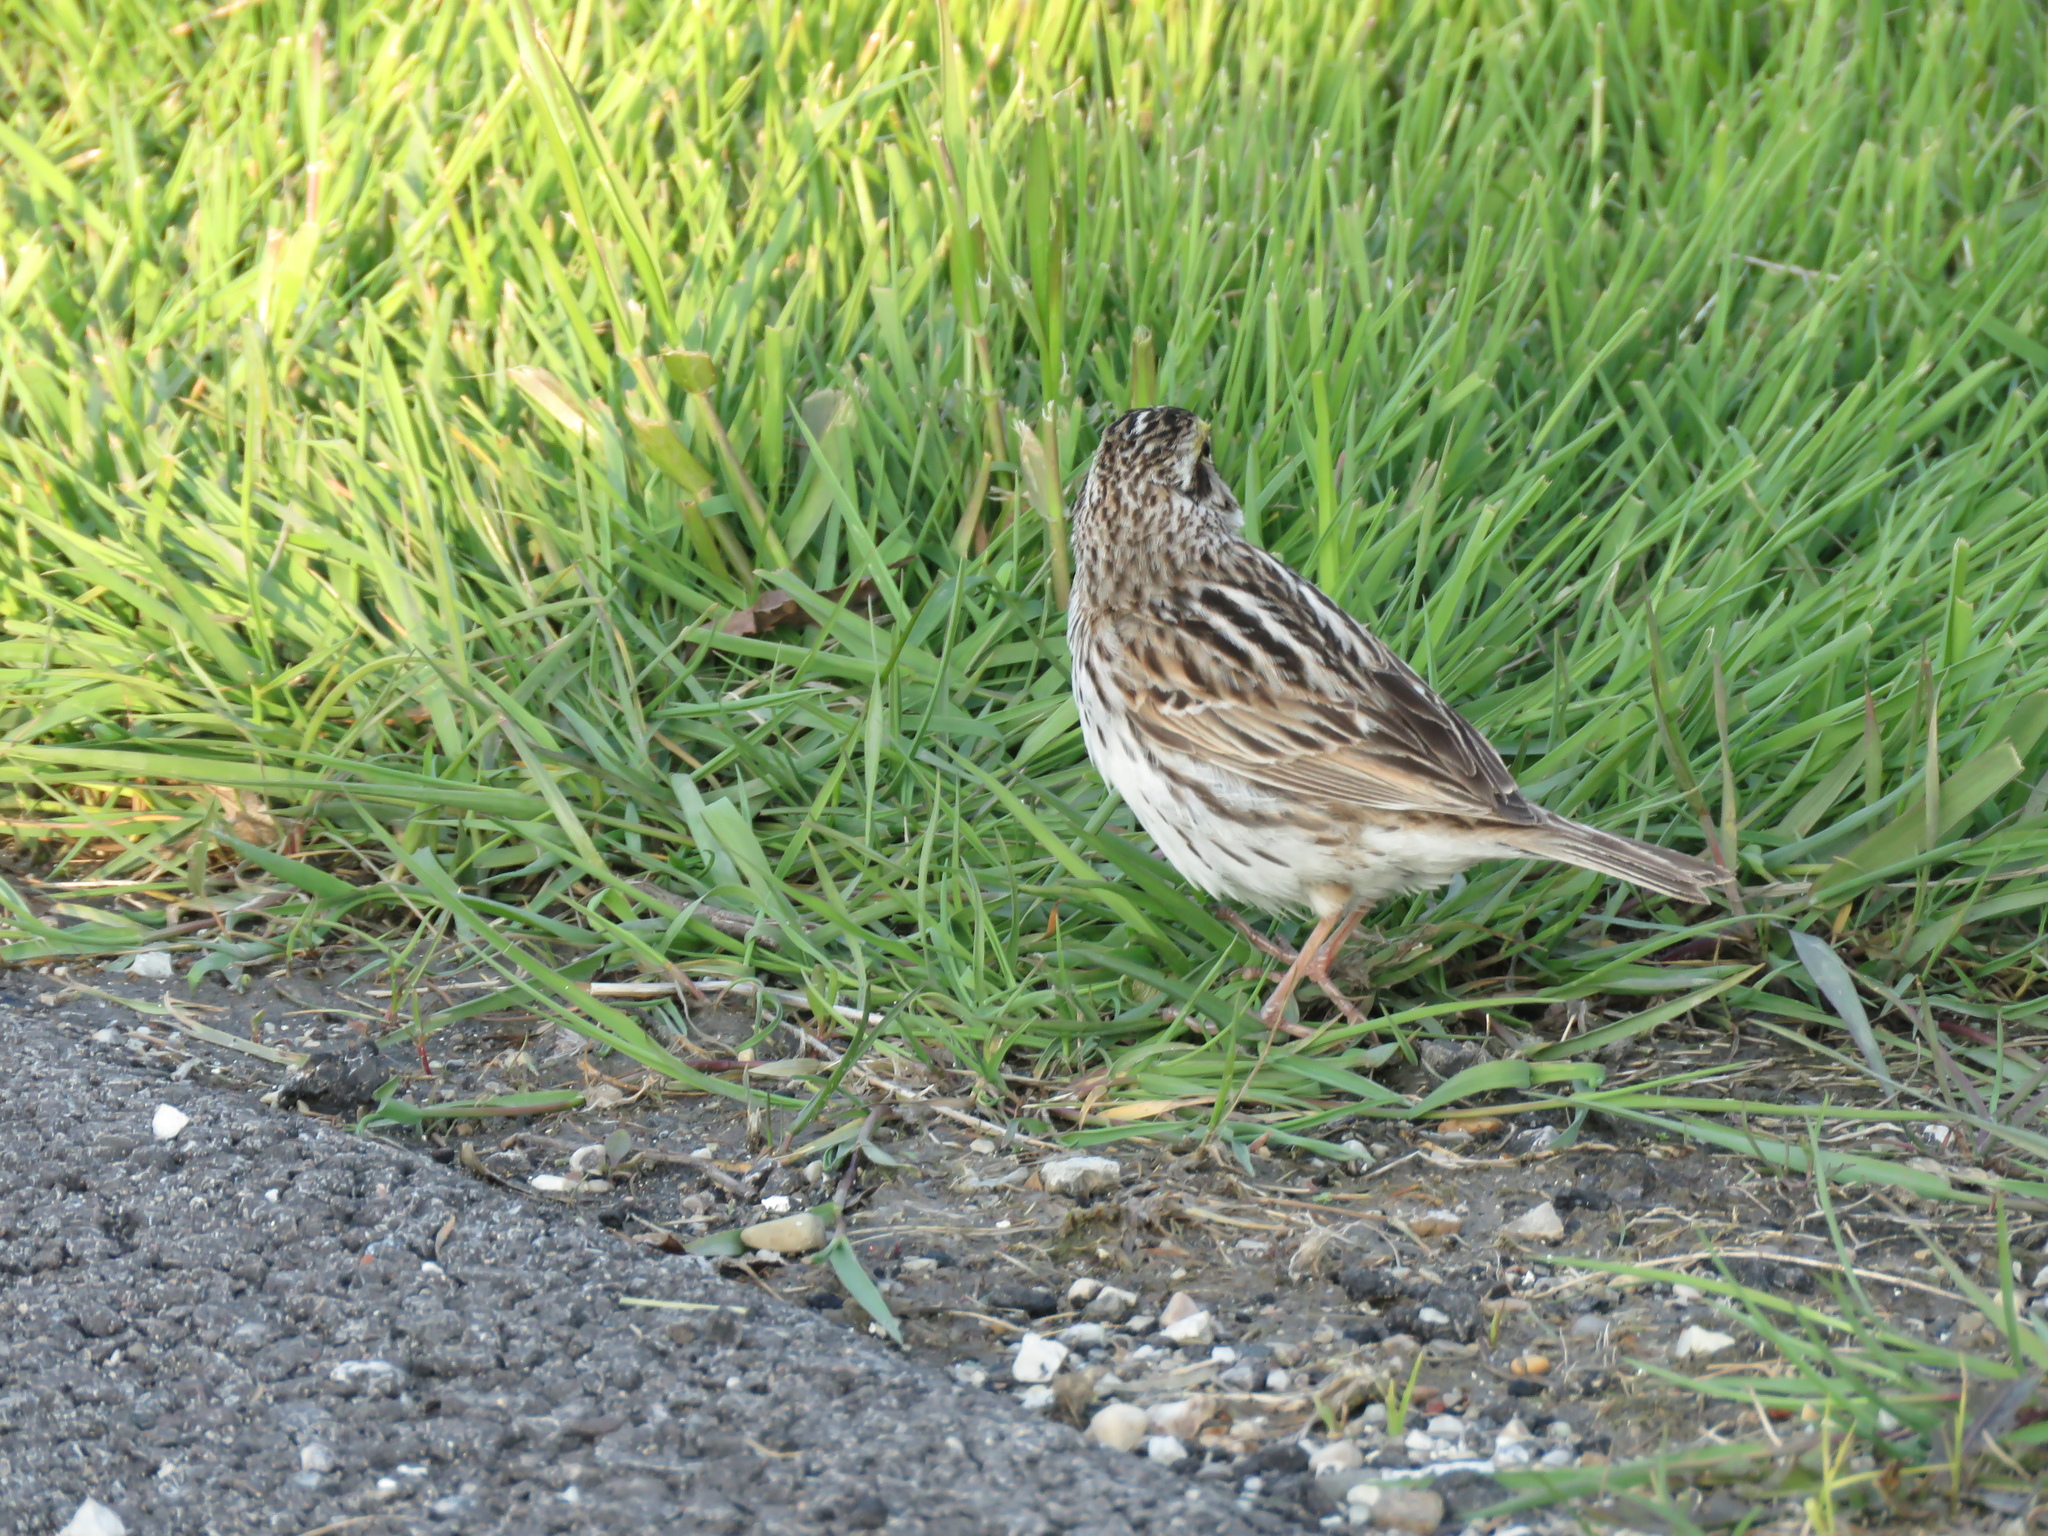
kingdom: Animalia
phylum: Chordata
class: Aves
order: Passeriformes
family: Passerellidae
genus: Passerculus
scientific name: Passerculus sandwichensis
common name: Savannah sparrow
